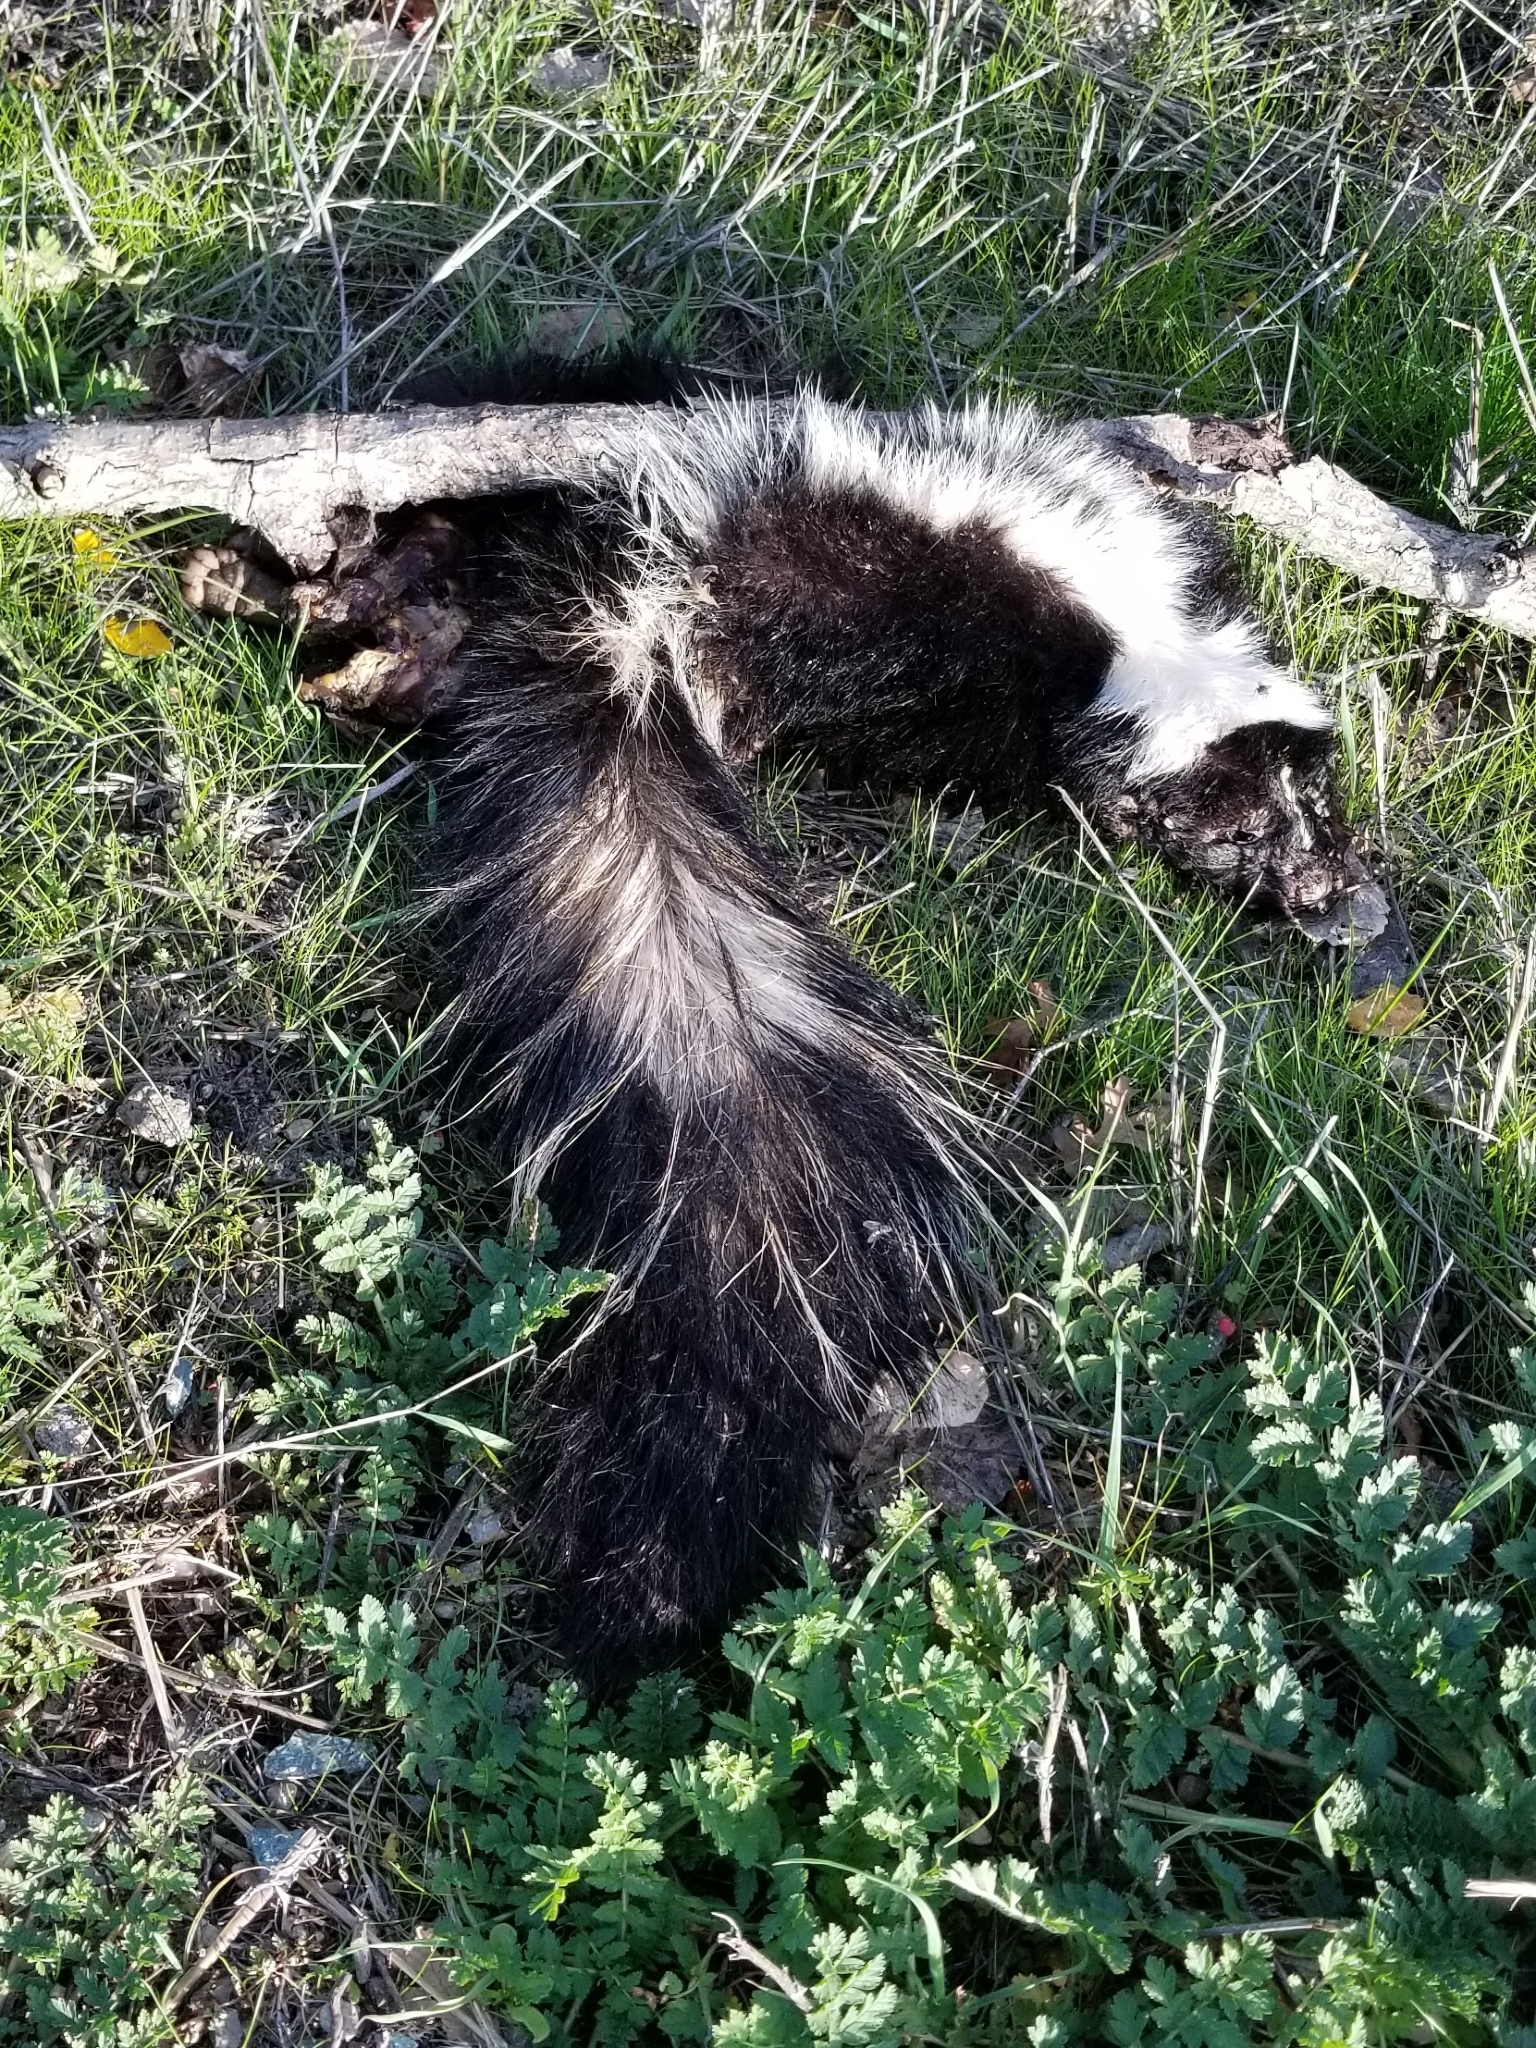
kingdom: Animalia
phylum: Chordata
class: Mammalia
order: Carnivora
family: Mephitidae
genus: Mephitis
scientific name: Mephitis mephitis
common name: Striped skunk
